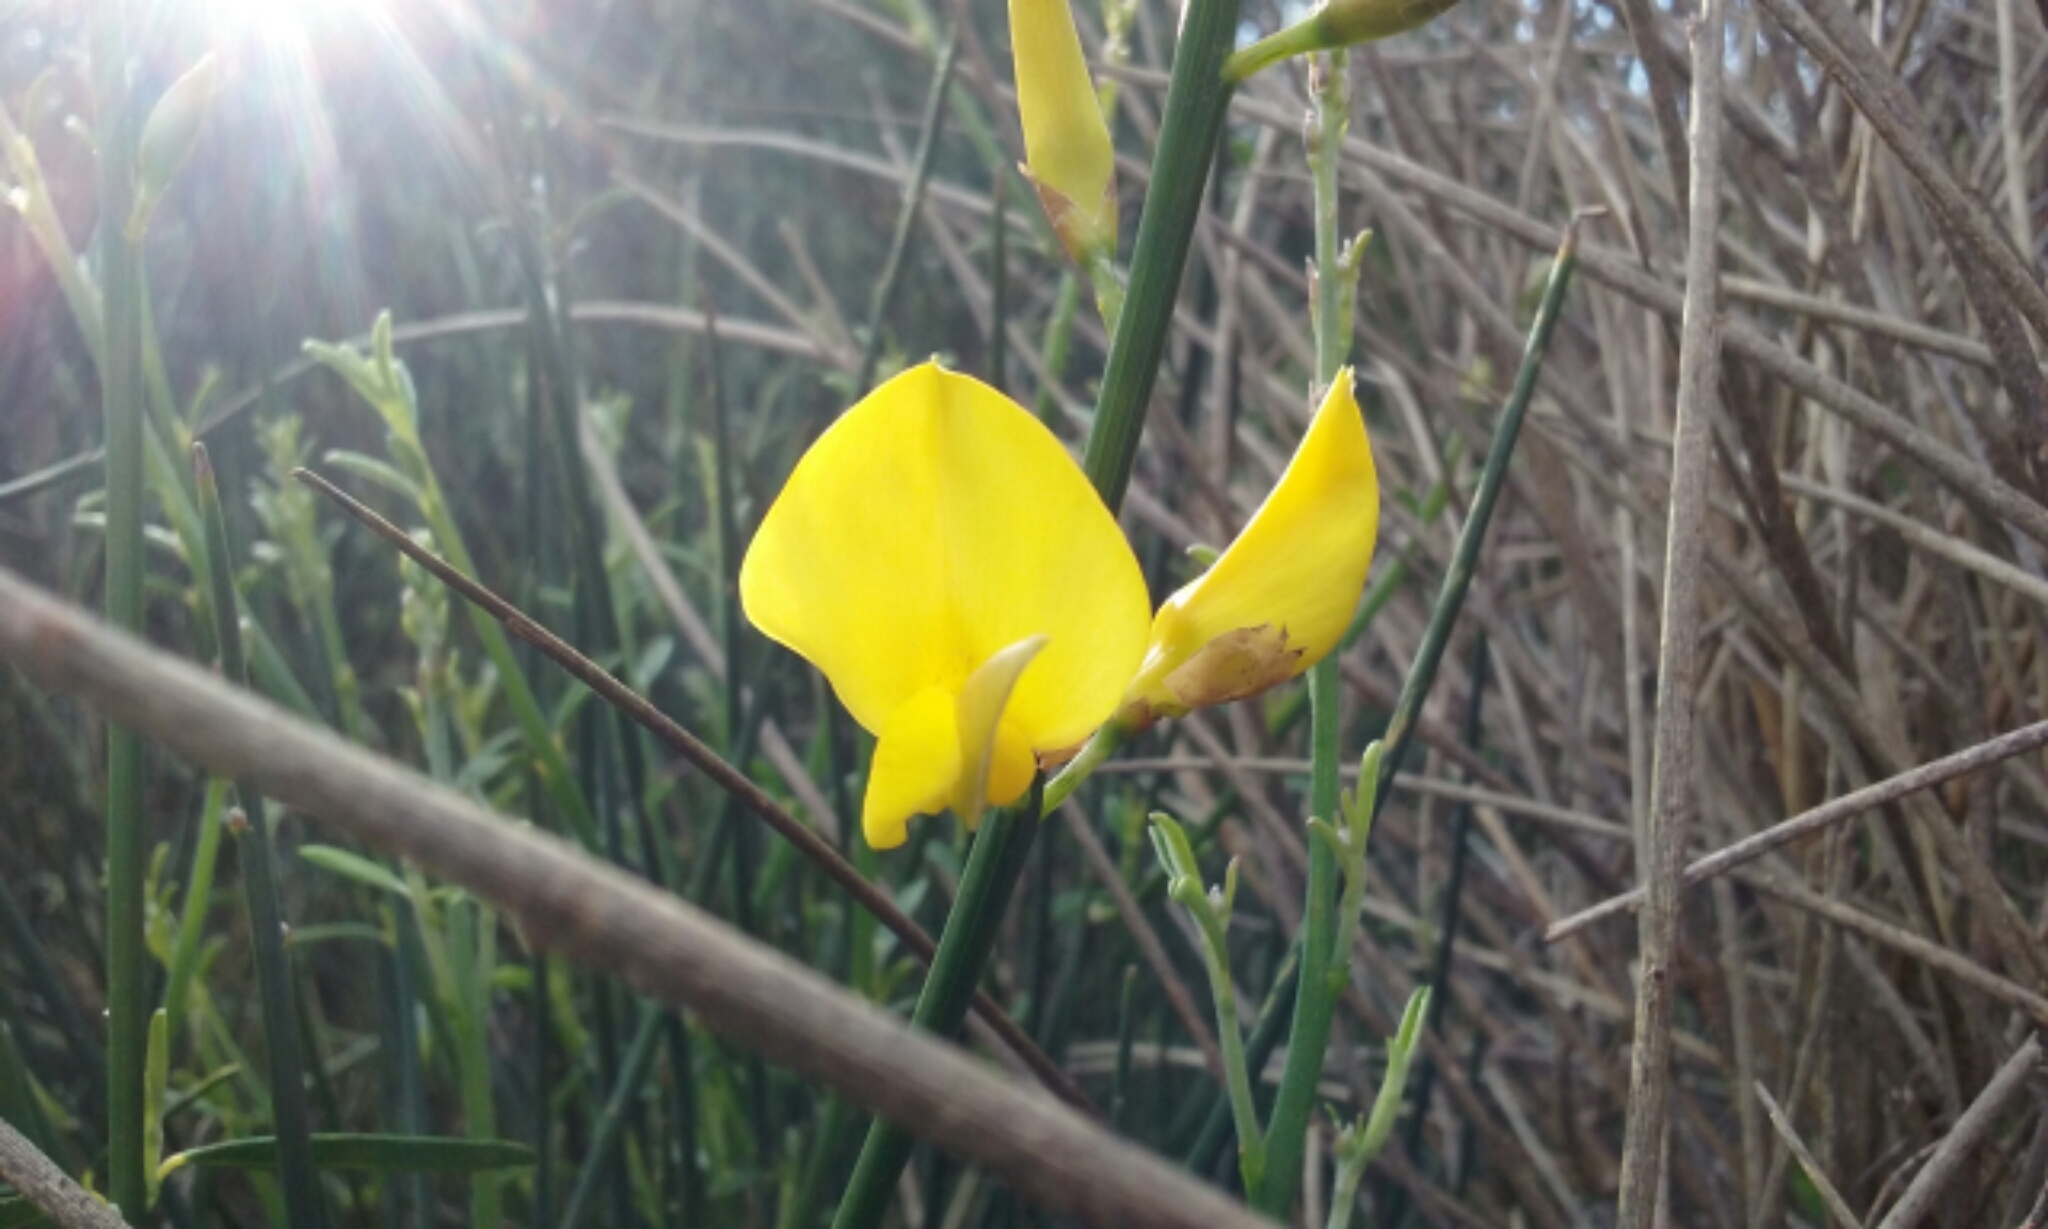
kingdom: Plantae
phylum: Tracheophyta
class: Magnoliopsida
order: Fabales
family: Fabaceae
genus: Spartium
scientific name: Spartium junceum
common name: Spanish broom
